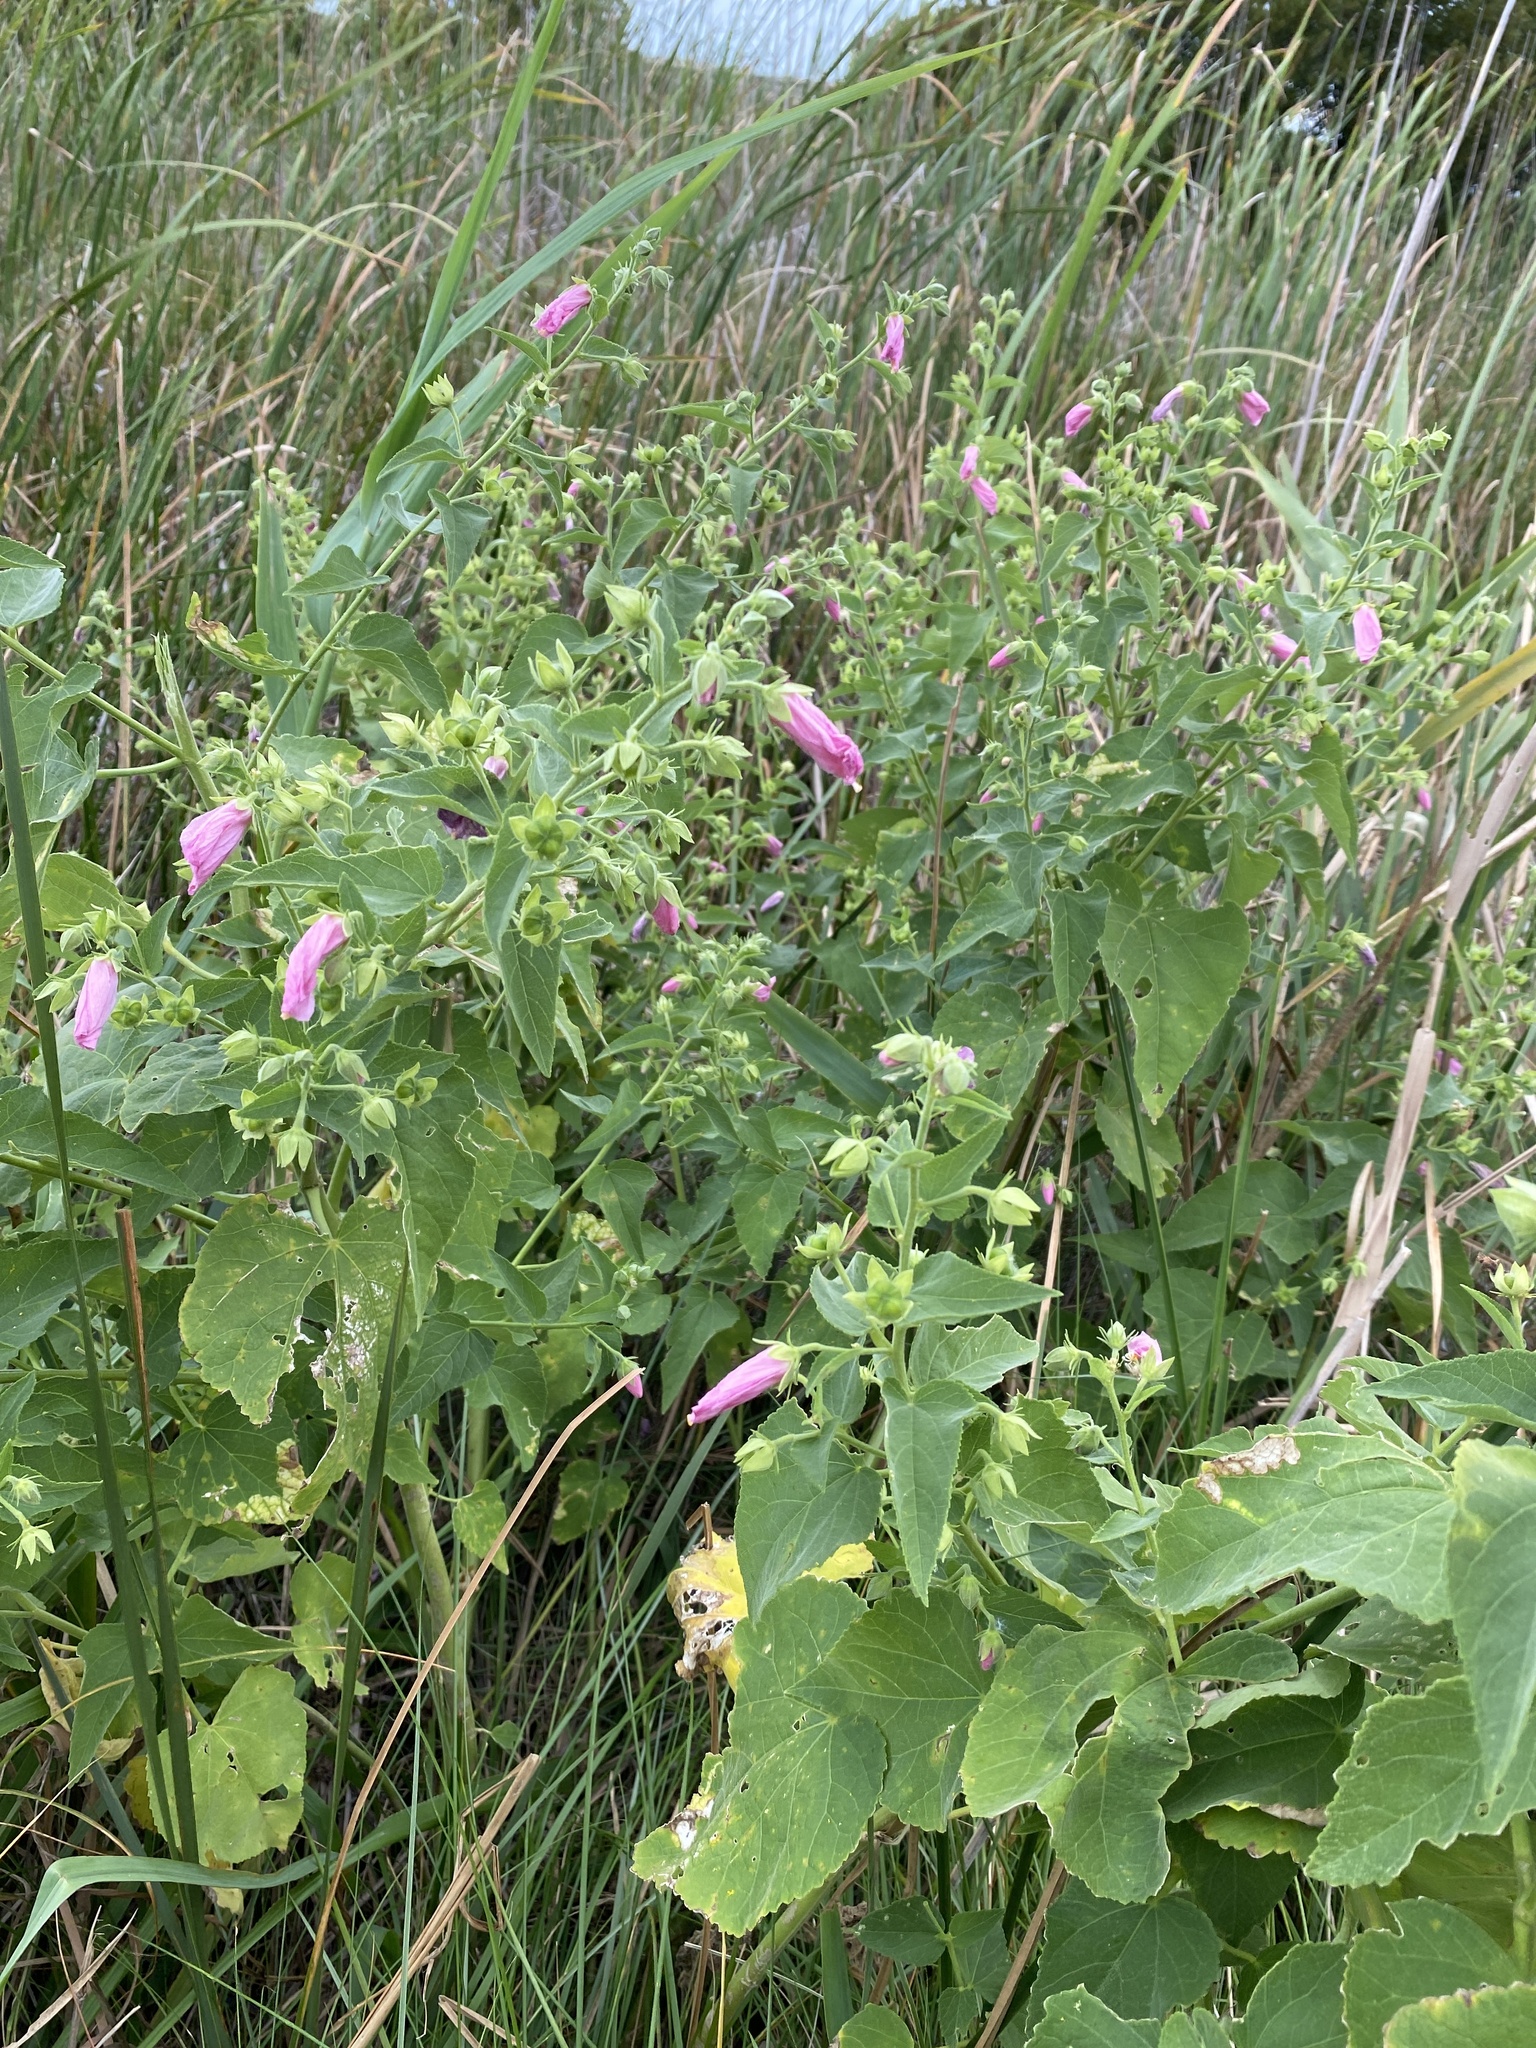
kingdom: Plantae
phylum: Tracheophyta
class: Magnoliopsida
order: Malvales
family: Malvaceae
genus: Kosteletzkya
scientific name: Kosteletzkya pentacarpos
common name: Virginia saltmarsh mallow
